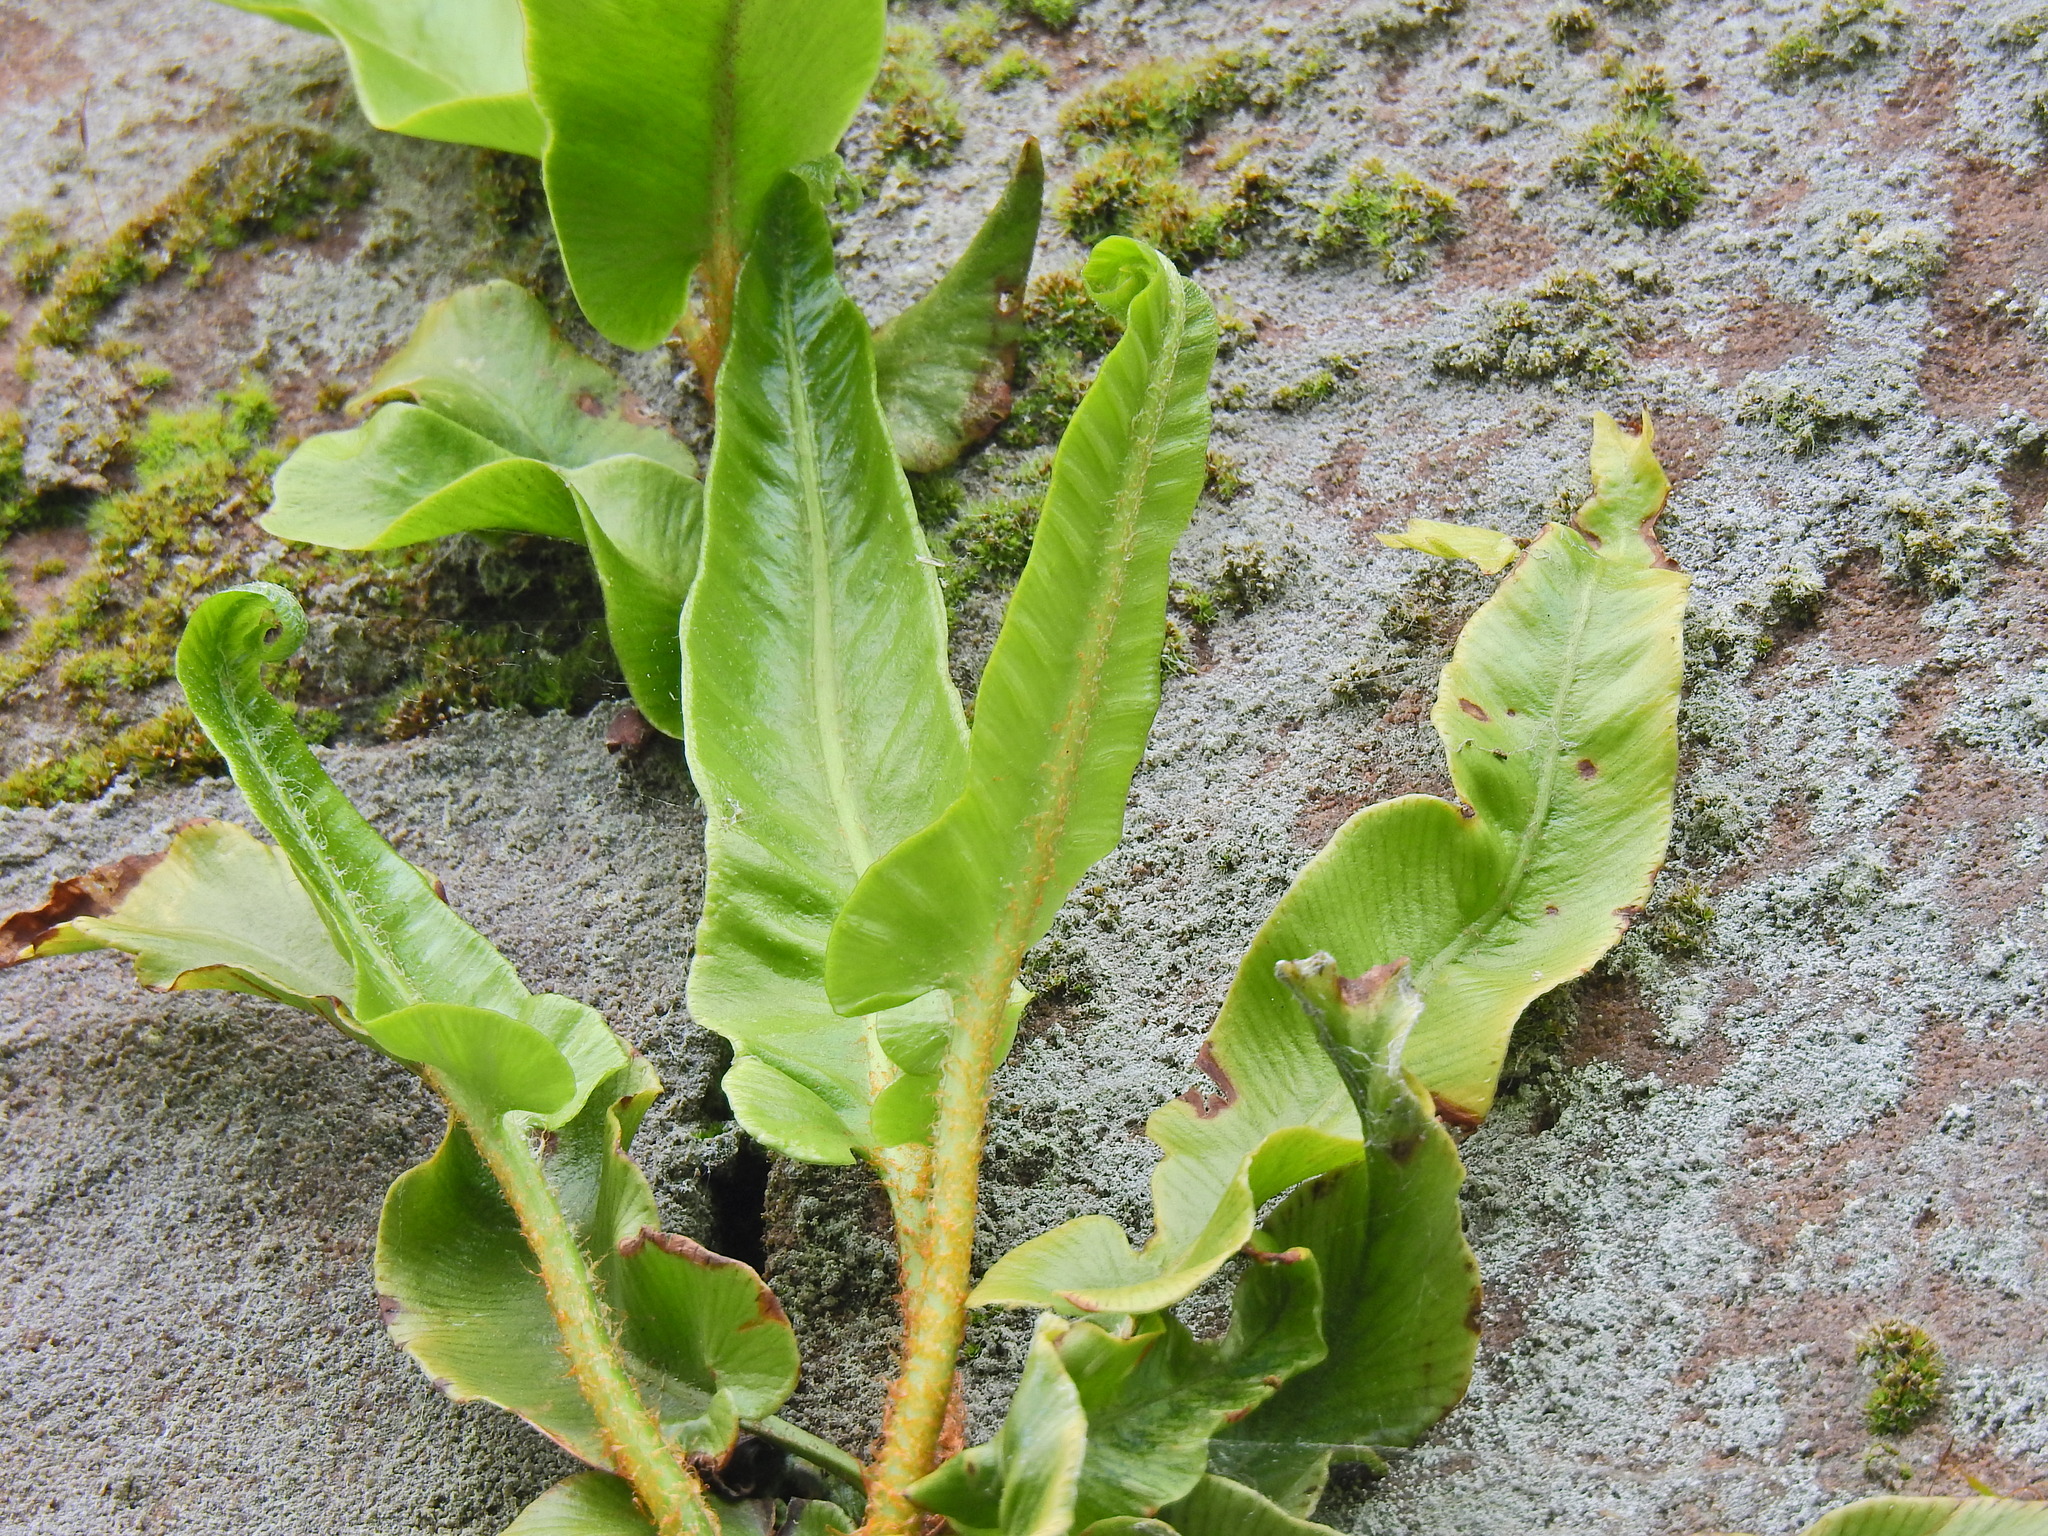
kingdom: Plantae
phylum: Tracheophyta
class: Polypodiopsida
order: Polypodiales
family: Aspleniaceae
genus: Asplenium
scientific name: Asplenium scolopendrium
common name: Hart's-tongue fern
